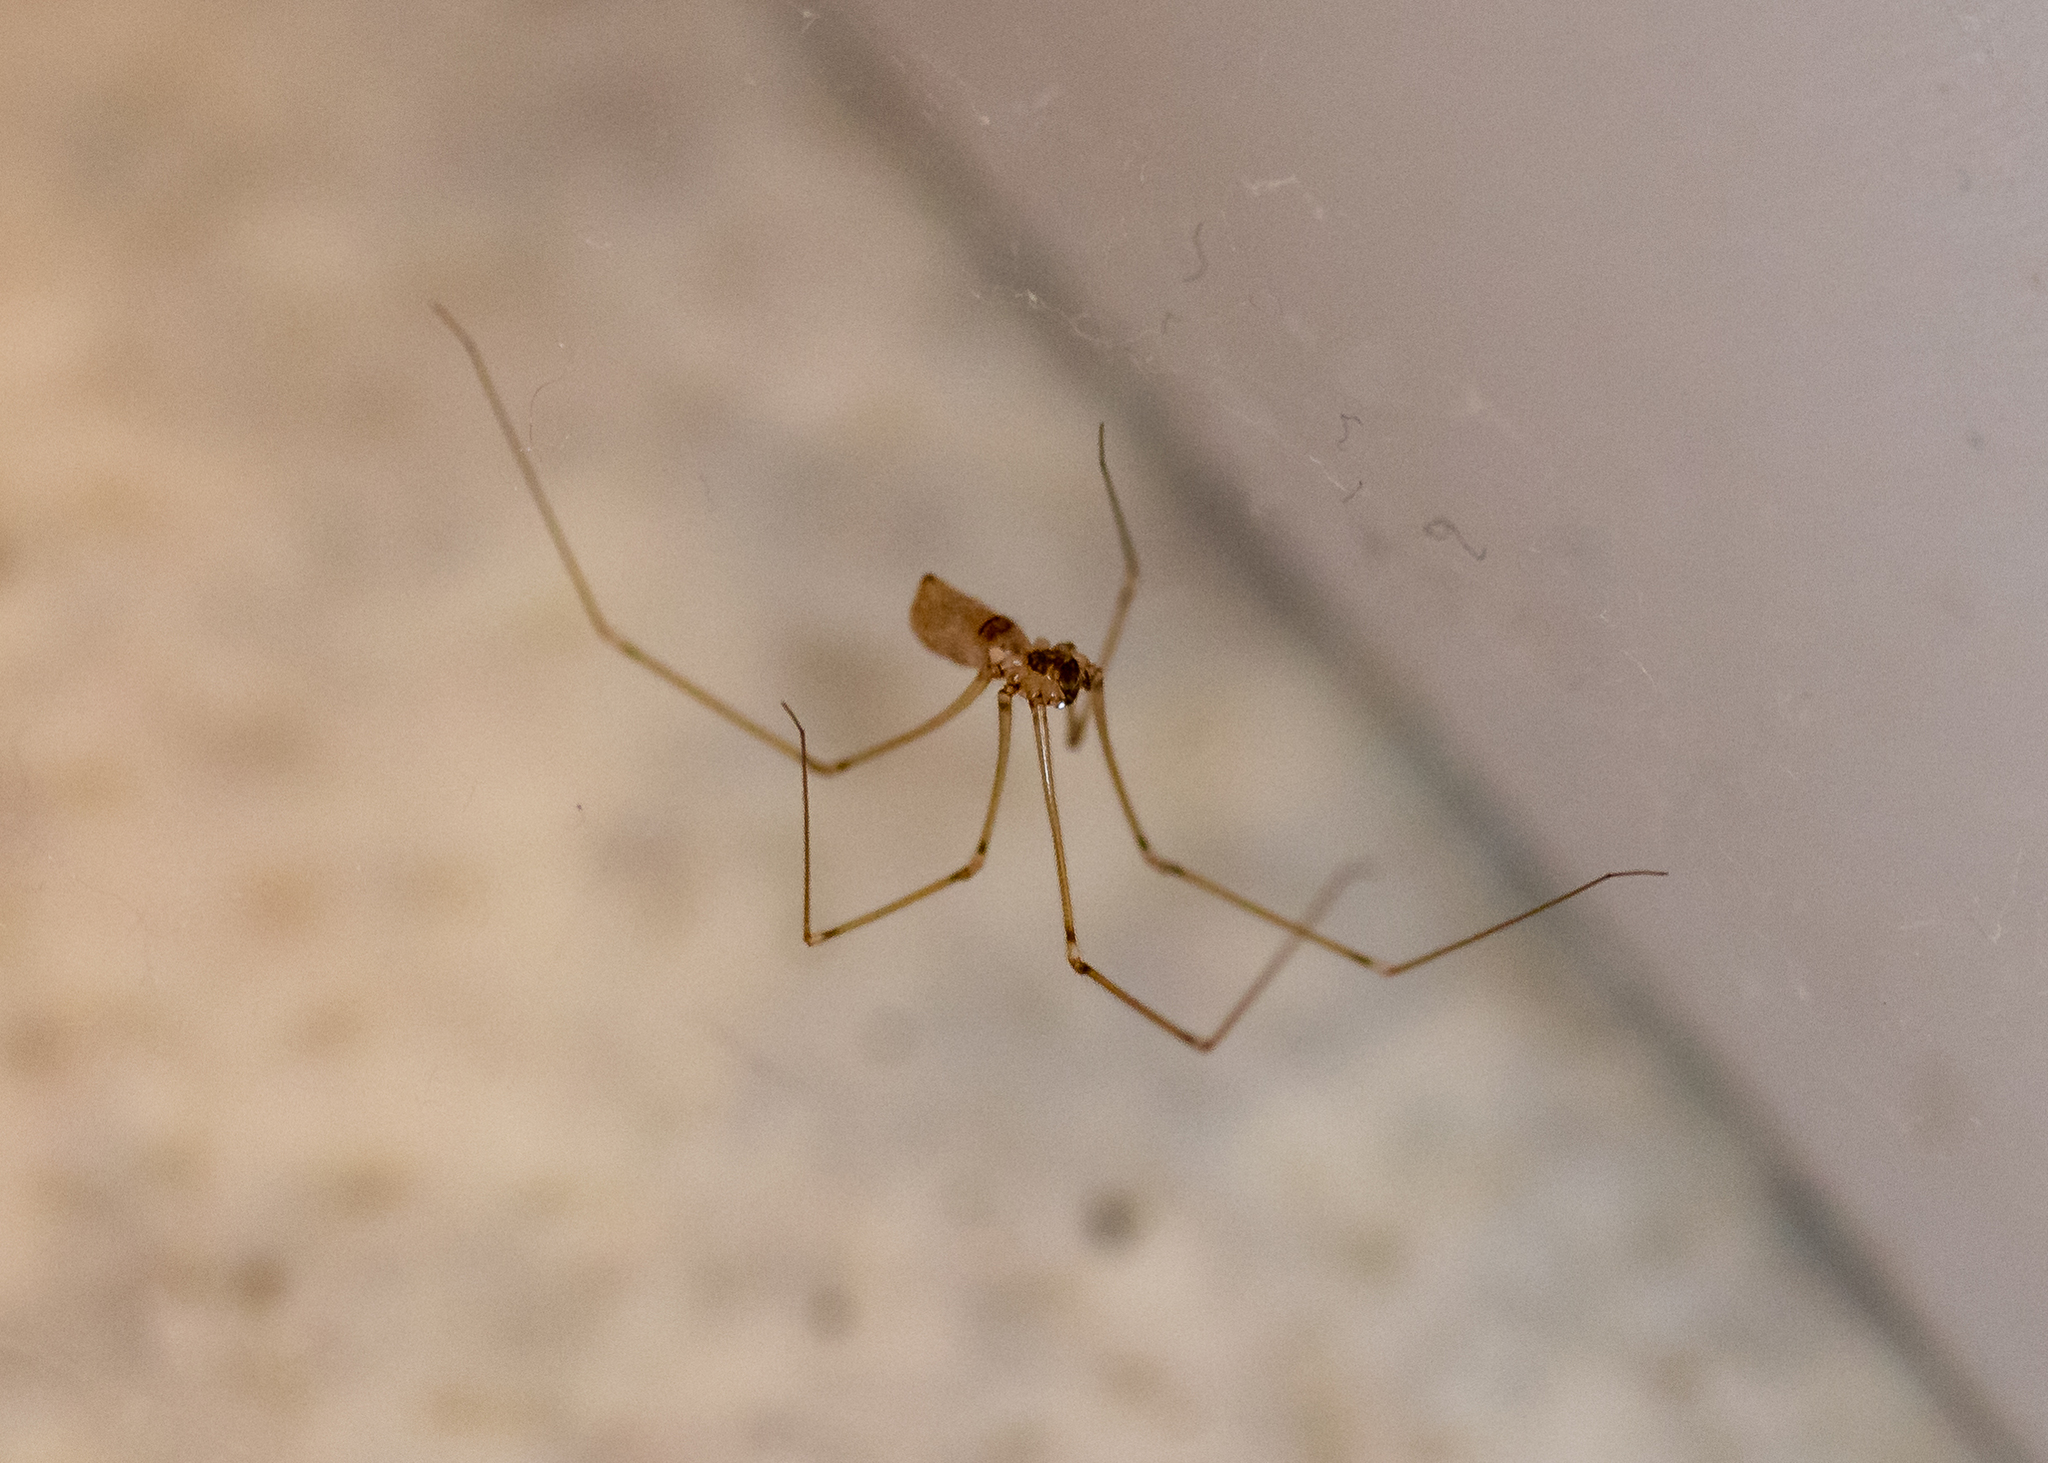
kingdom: Animalia
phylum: Arthropoda
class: Arachnida
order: Araneae
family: Pholcidae
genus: Pholcus
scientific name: Pholcus phalangioides
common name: Longbodied cellar spider
